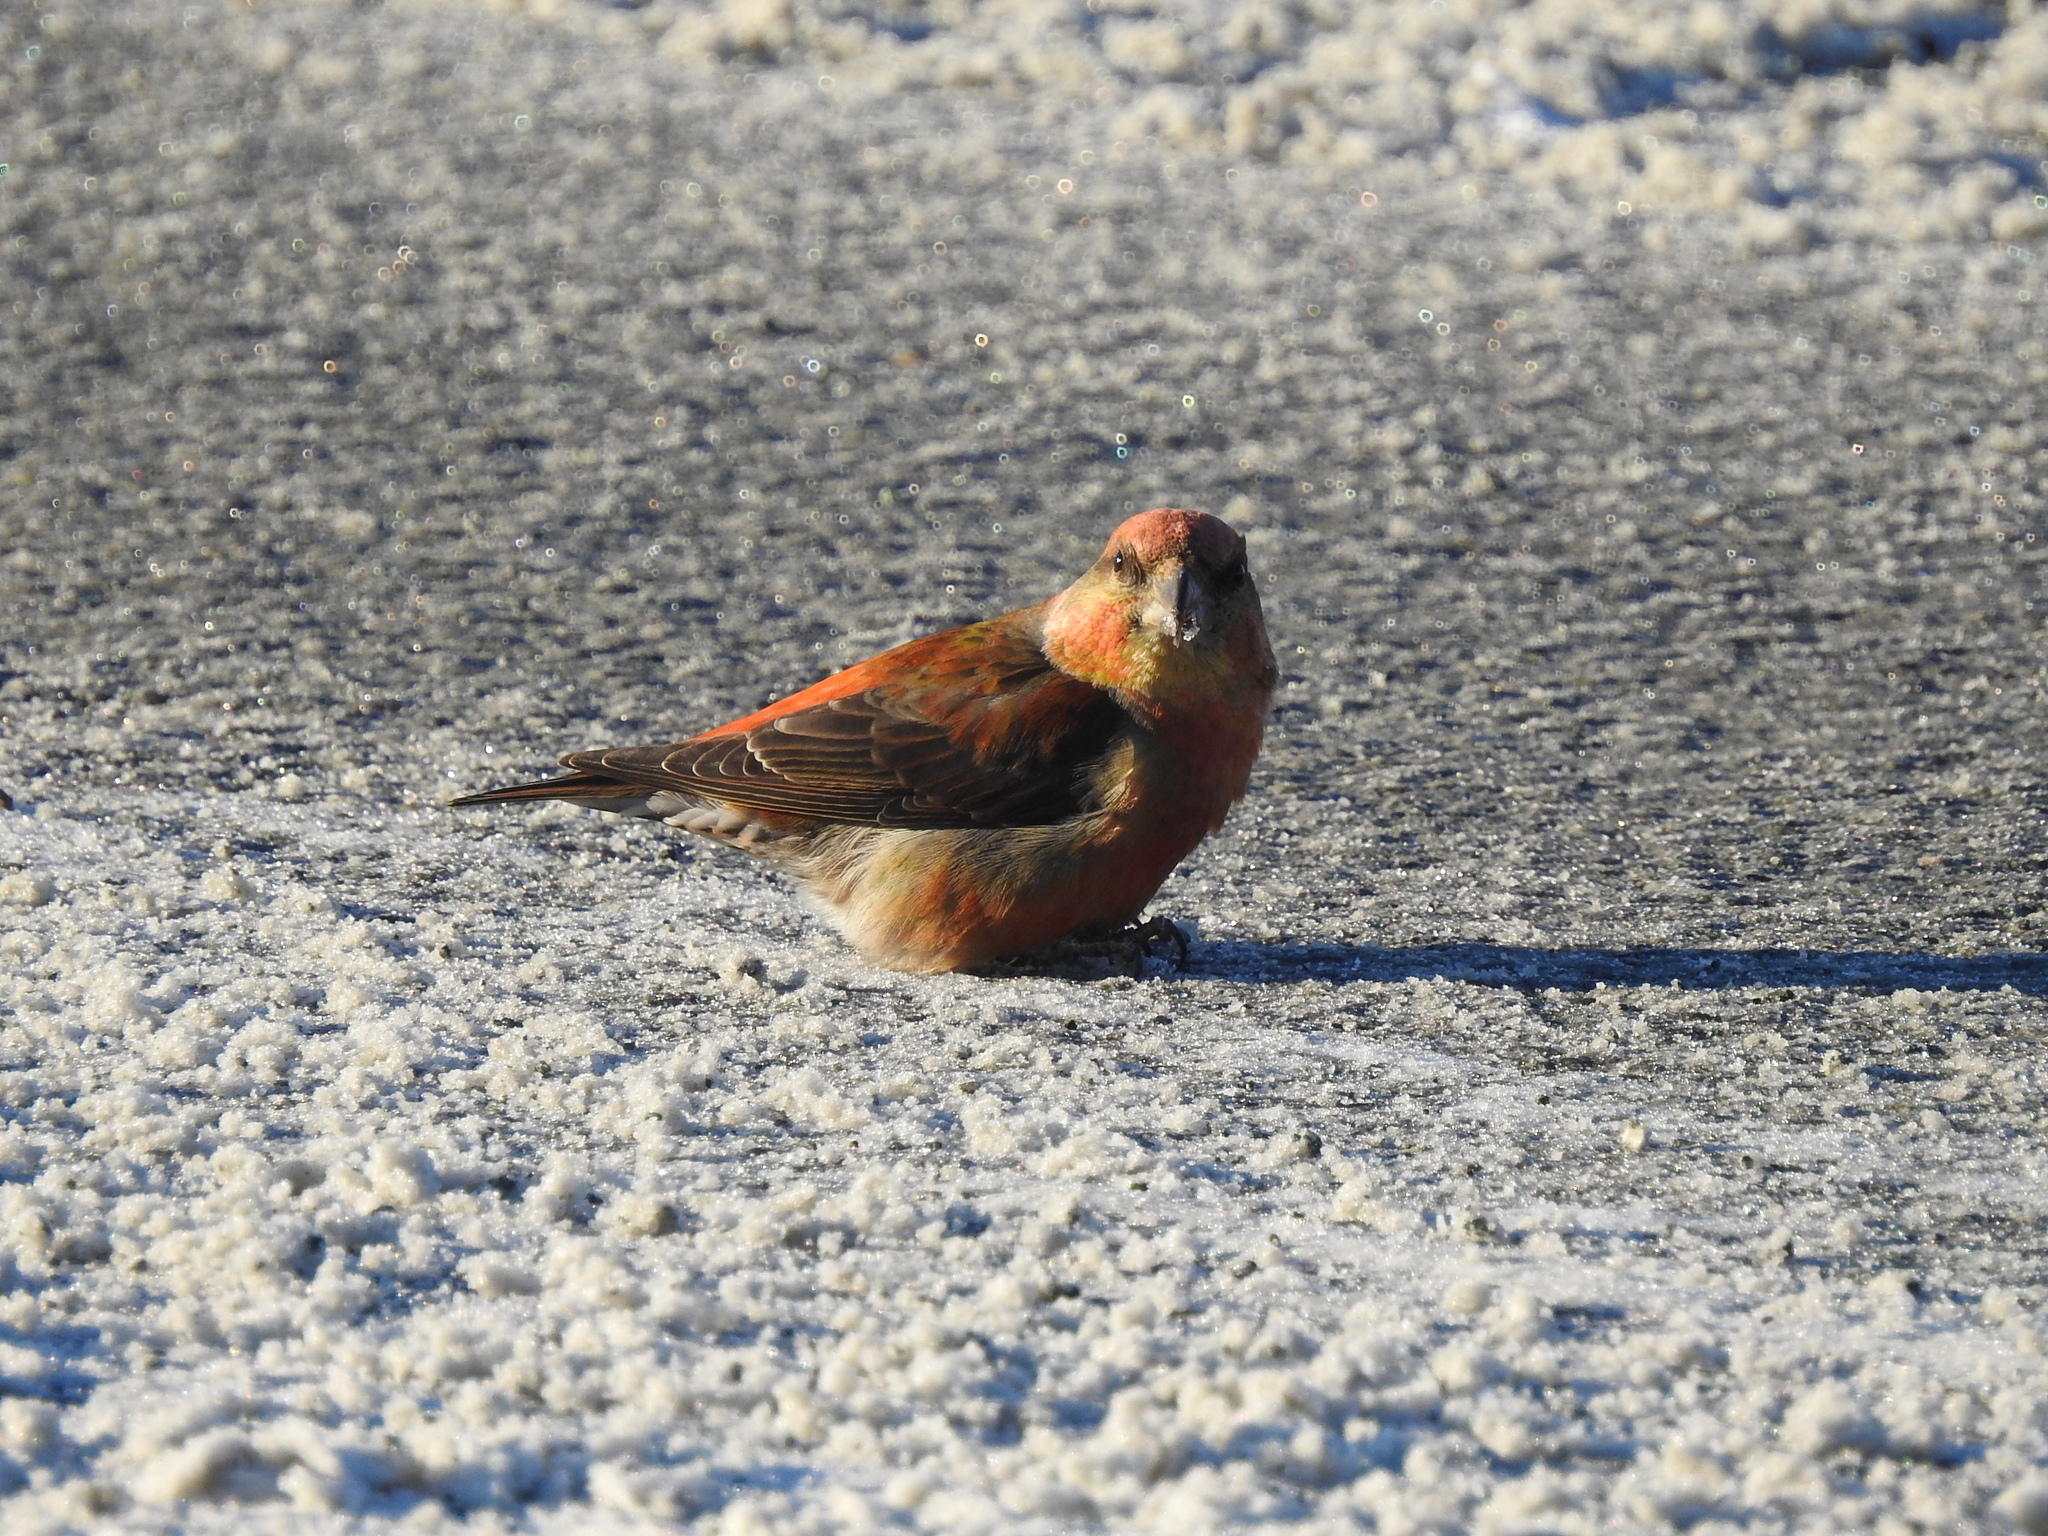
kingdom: Animalia
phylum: Chordata
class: Aves
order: Passeriformes
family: Fringillidae
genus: Loxia
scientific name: Loxia curvirostra
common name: Red crossbill
